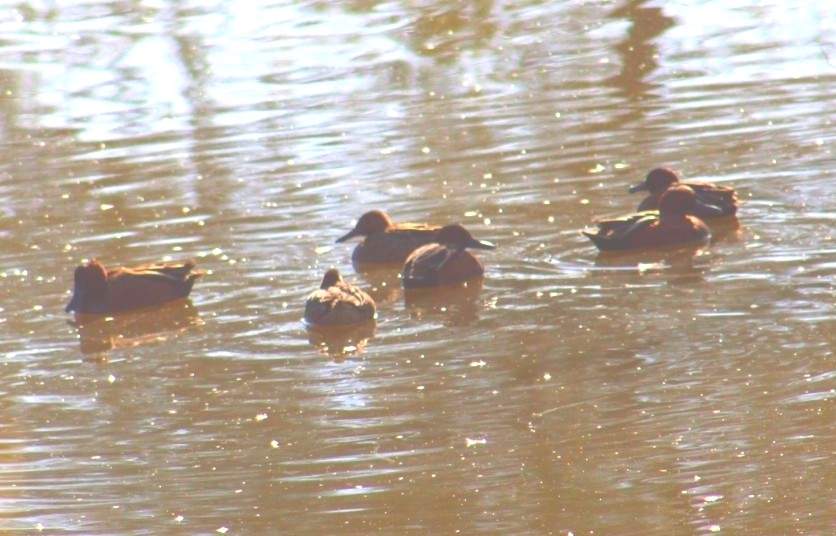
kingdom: Animalia
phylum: Chordata
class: Aves
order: Anseriformes
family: Anatidae
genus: Spatula
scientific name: Spatula cyanoptera
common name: Cinnamon teal
